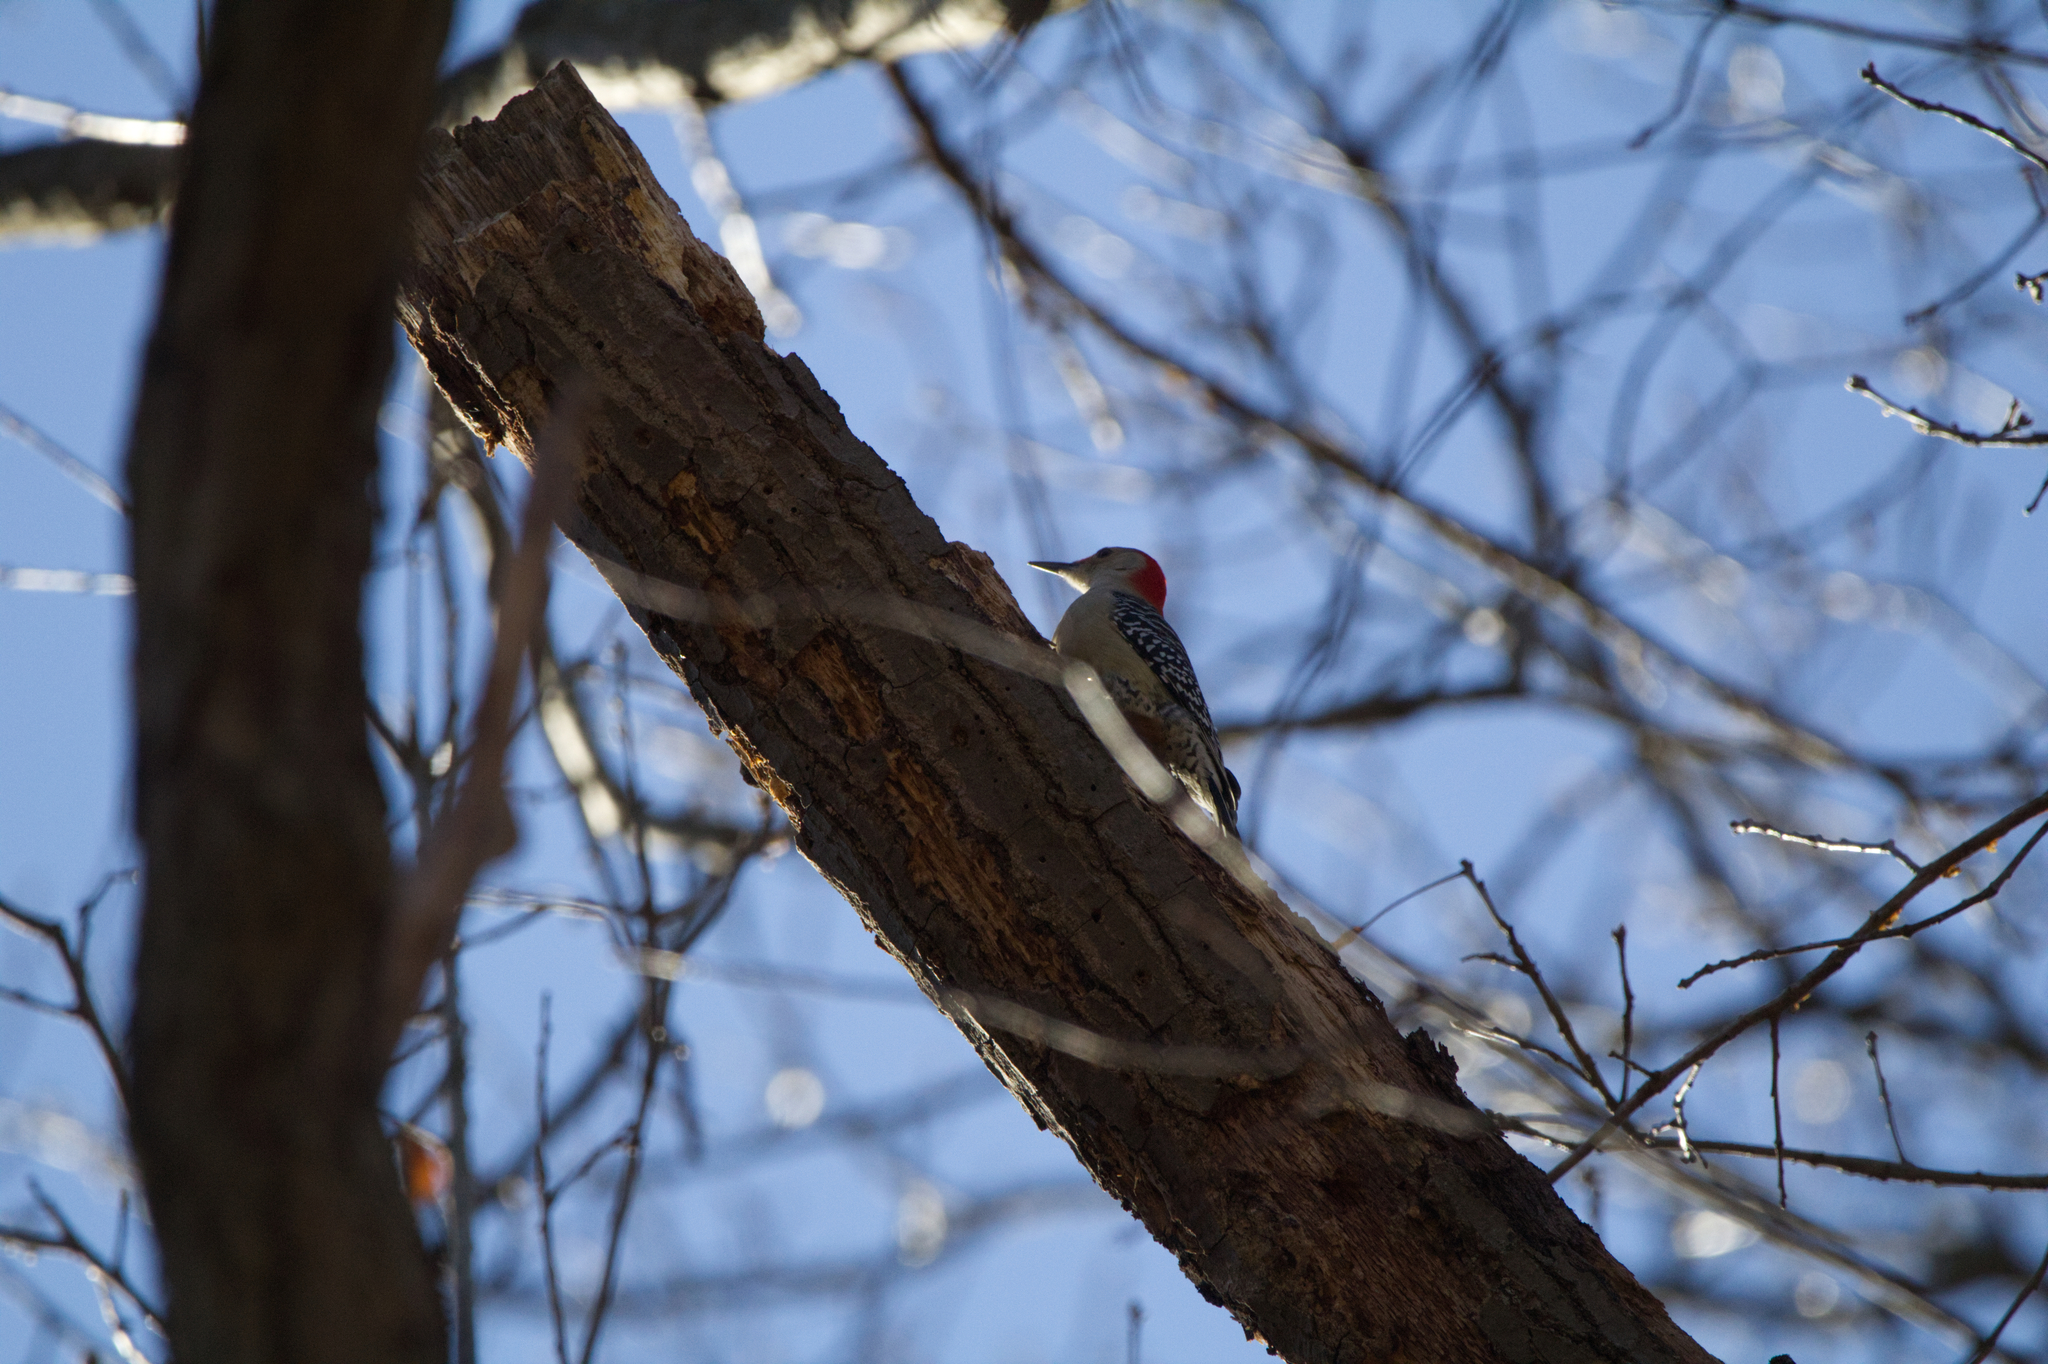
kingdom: Animalia
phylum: Chordata
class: Aves
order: Piciformes
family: Picidae
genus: Melanerpes
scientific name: Melanerpes carolinus
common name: Red-bellied woodpecker
